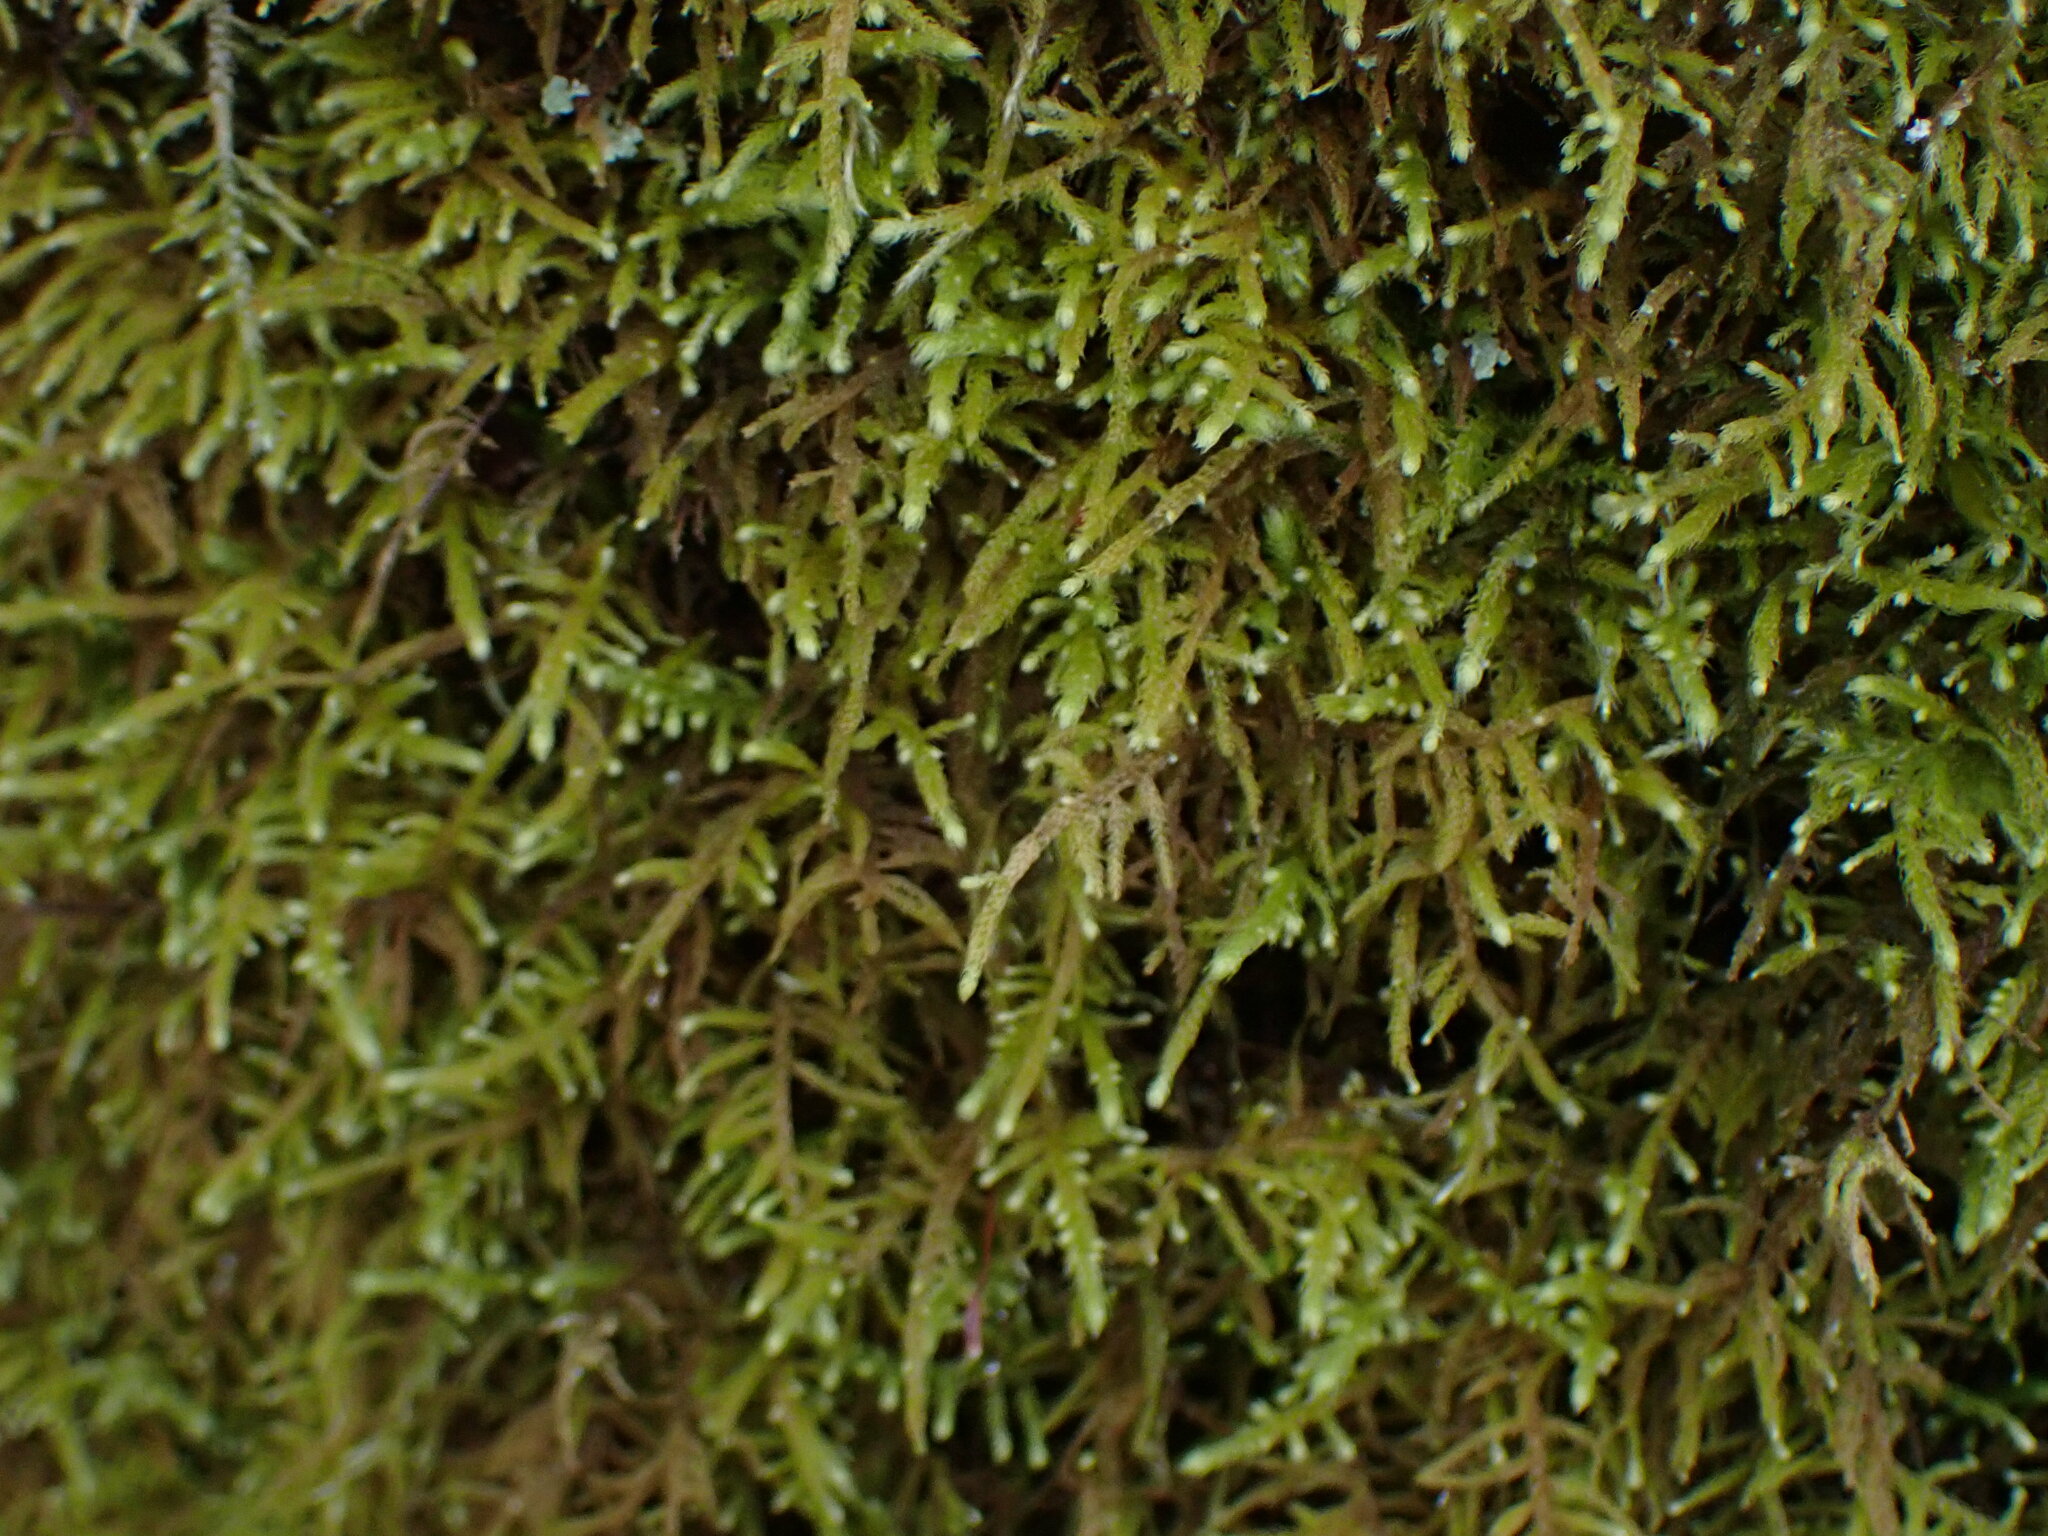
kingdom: Plantae
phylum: Bryophyta
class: Bryopsida
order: Hypnales
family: Brachytheciaceae
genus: Claopodium
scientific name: Claopodium crispifolium
